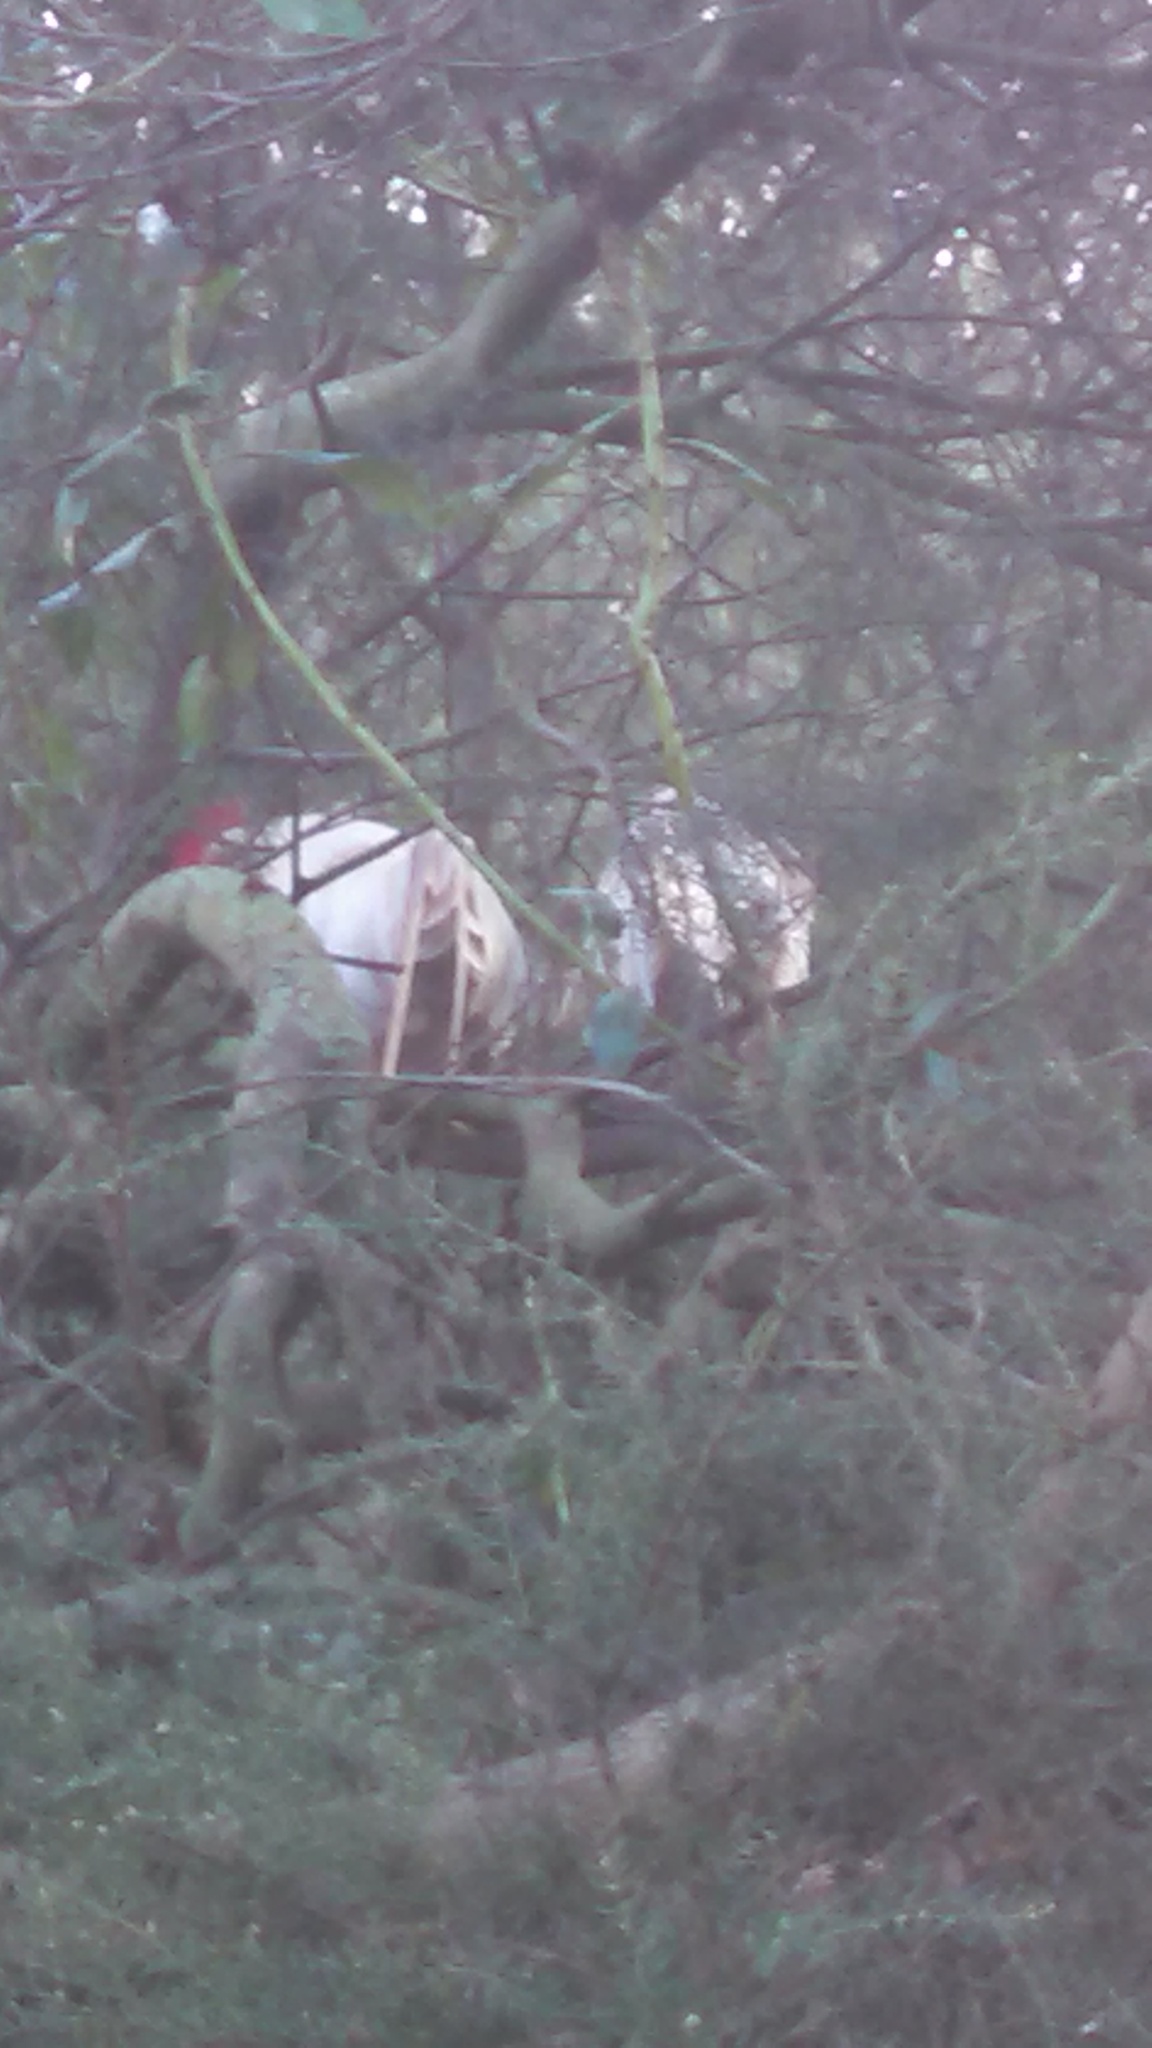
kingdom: Animalia
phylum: Chordata
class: Aves
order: Galliformes
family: Phasianidae
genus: Gallus
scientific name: Gallus gallus
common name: Red junglefowl
